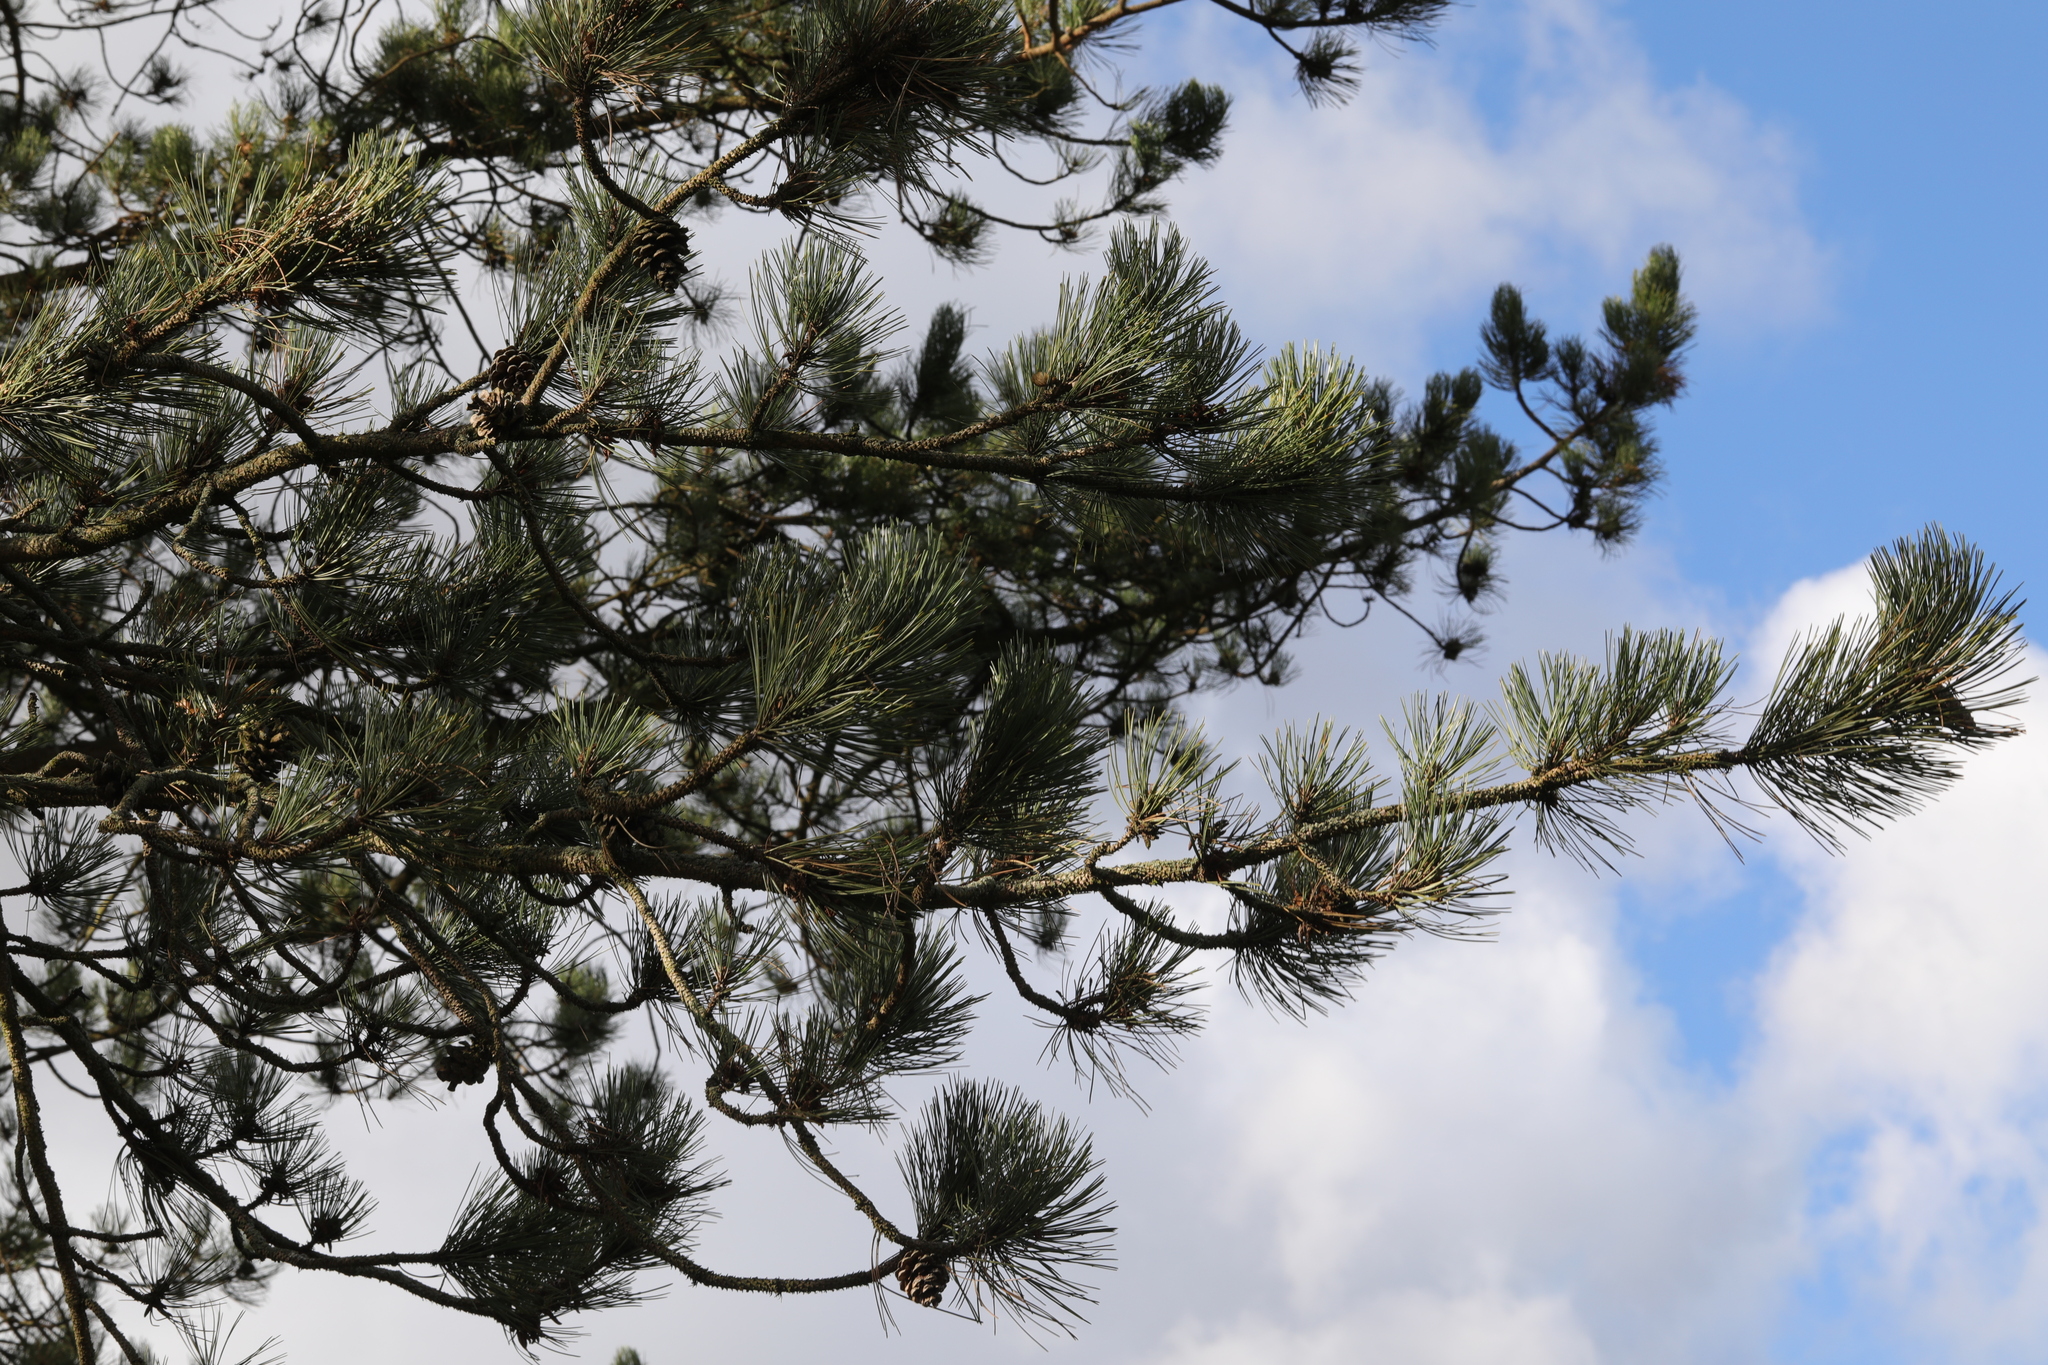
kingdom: Plantae
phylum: Tracheophyta
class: Pinopsida
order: Pinales
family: Pinaceae
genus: Pinus
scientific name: Pinus sylvestris
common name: Scots pine
